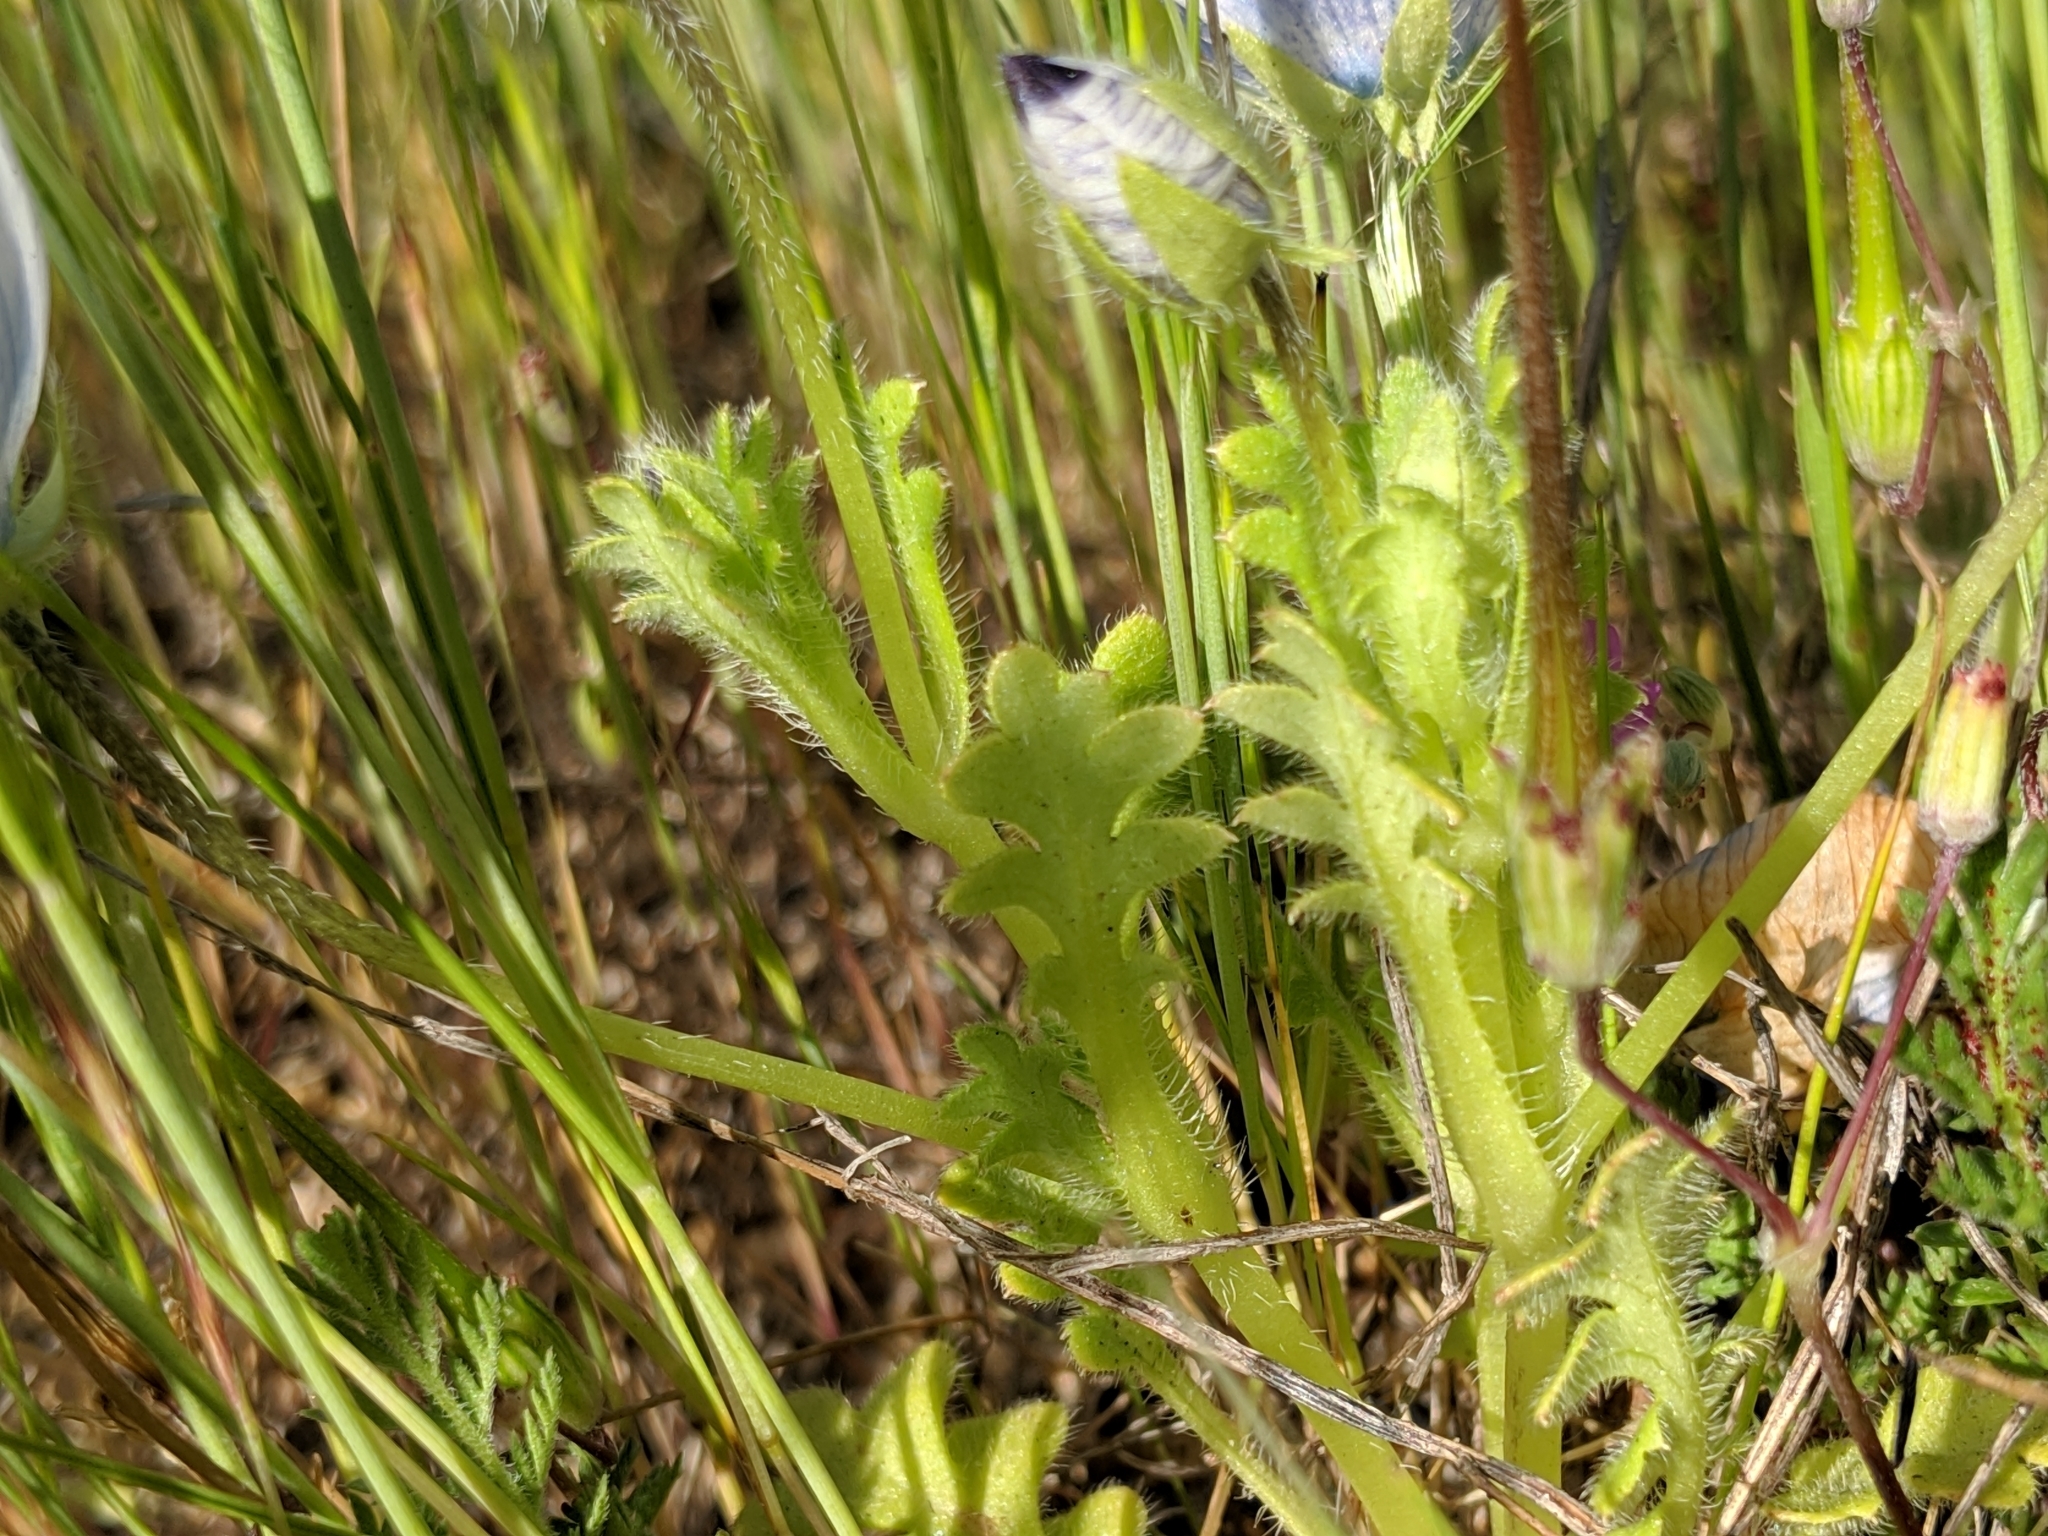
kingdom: Plantae
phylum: Tracheophyta
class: Magnoliopsida
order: Boraginales
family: Hydrophyllaceae
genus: Nemophila
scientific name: Nemophila maculata
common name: Fivespot
